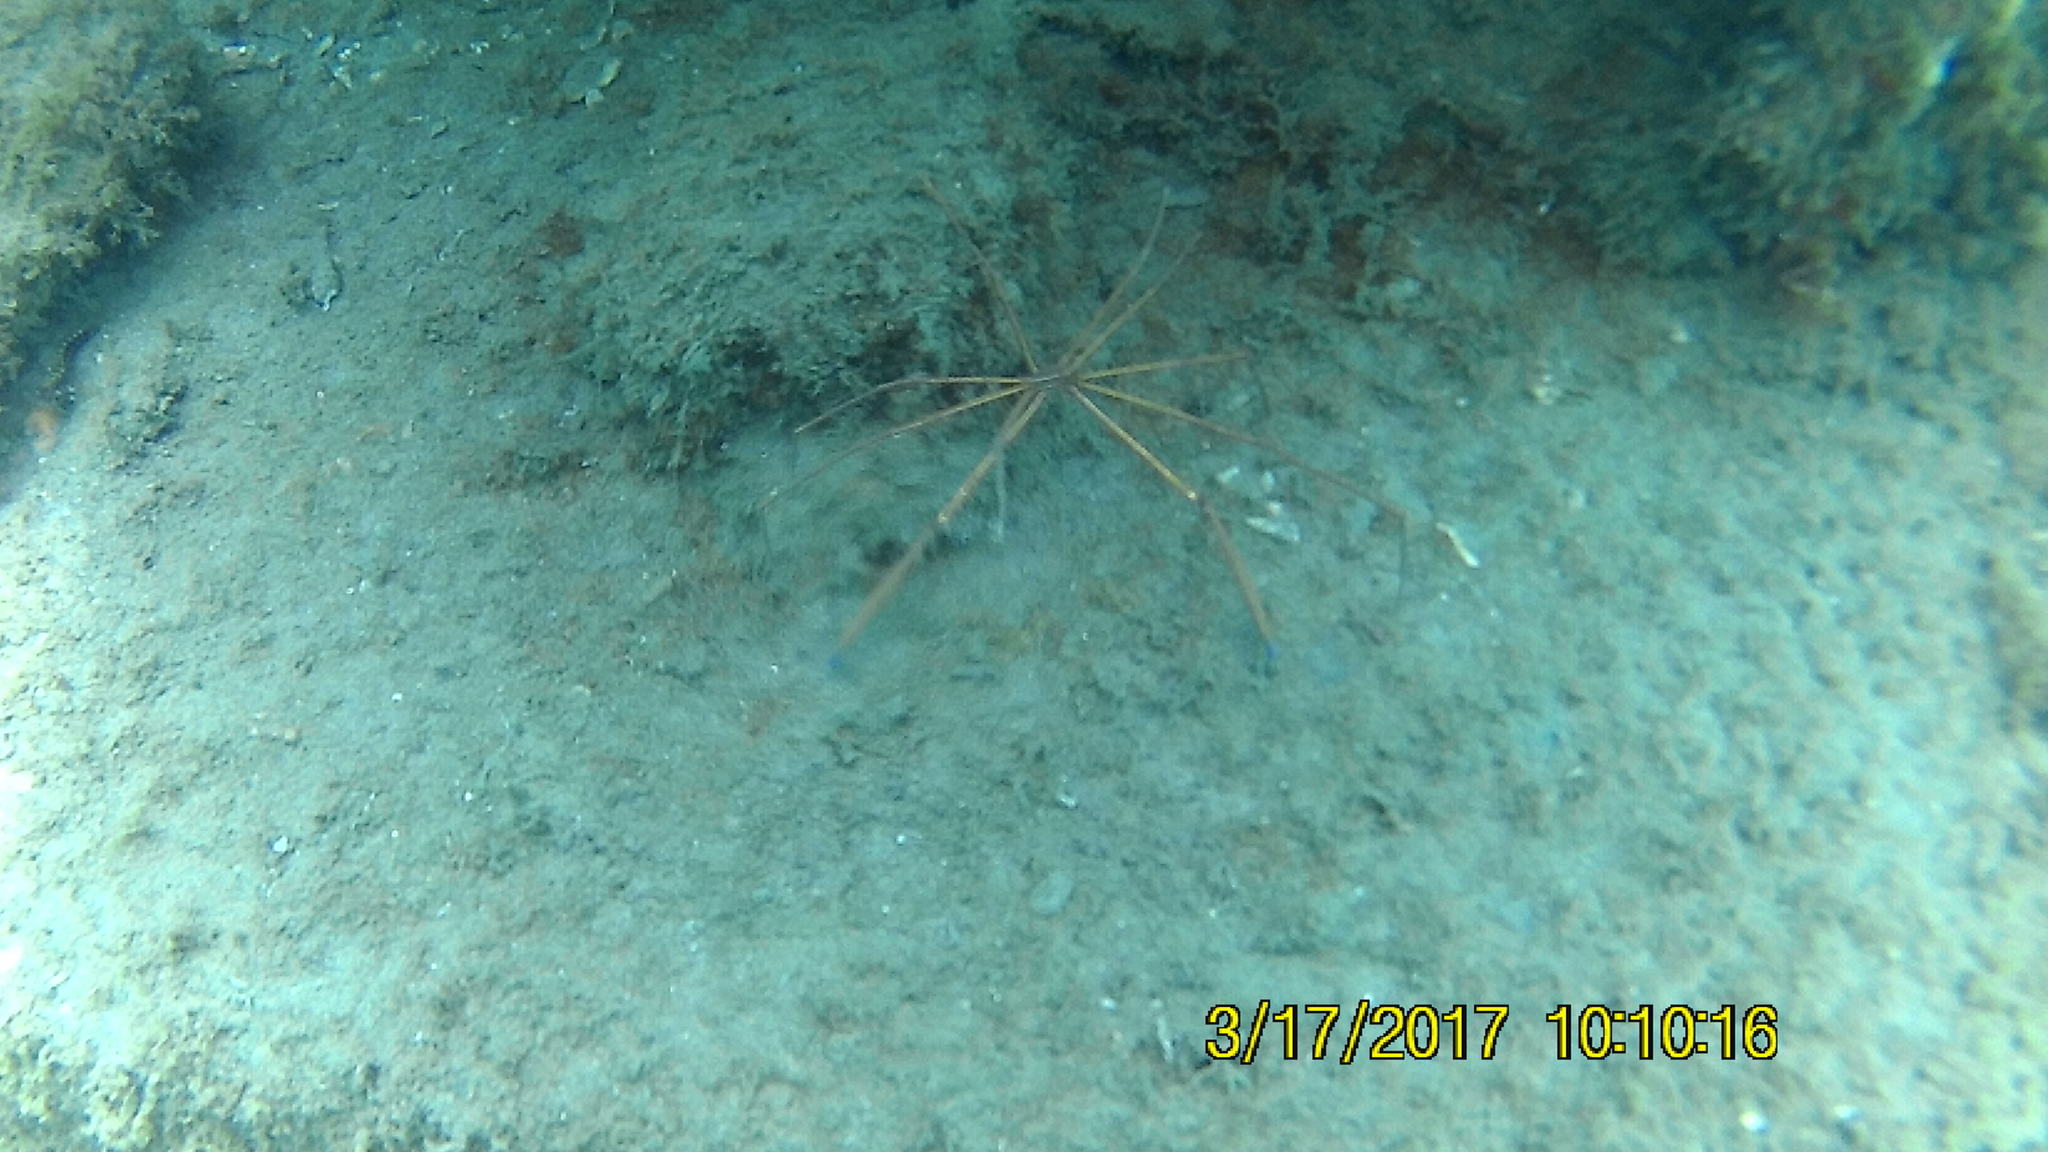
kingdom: Animalia
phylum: Arthropoda
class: Malacostraca
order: Decapoda
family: Inachoididae
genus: Stenorhynchus
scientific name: Stenorhynchus seticornis
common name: Arrow crab
